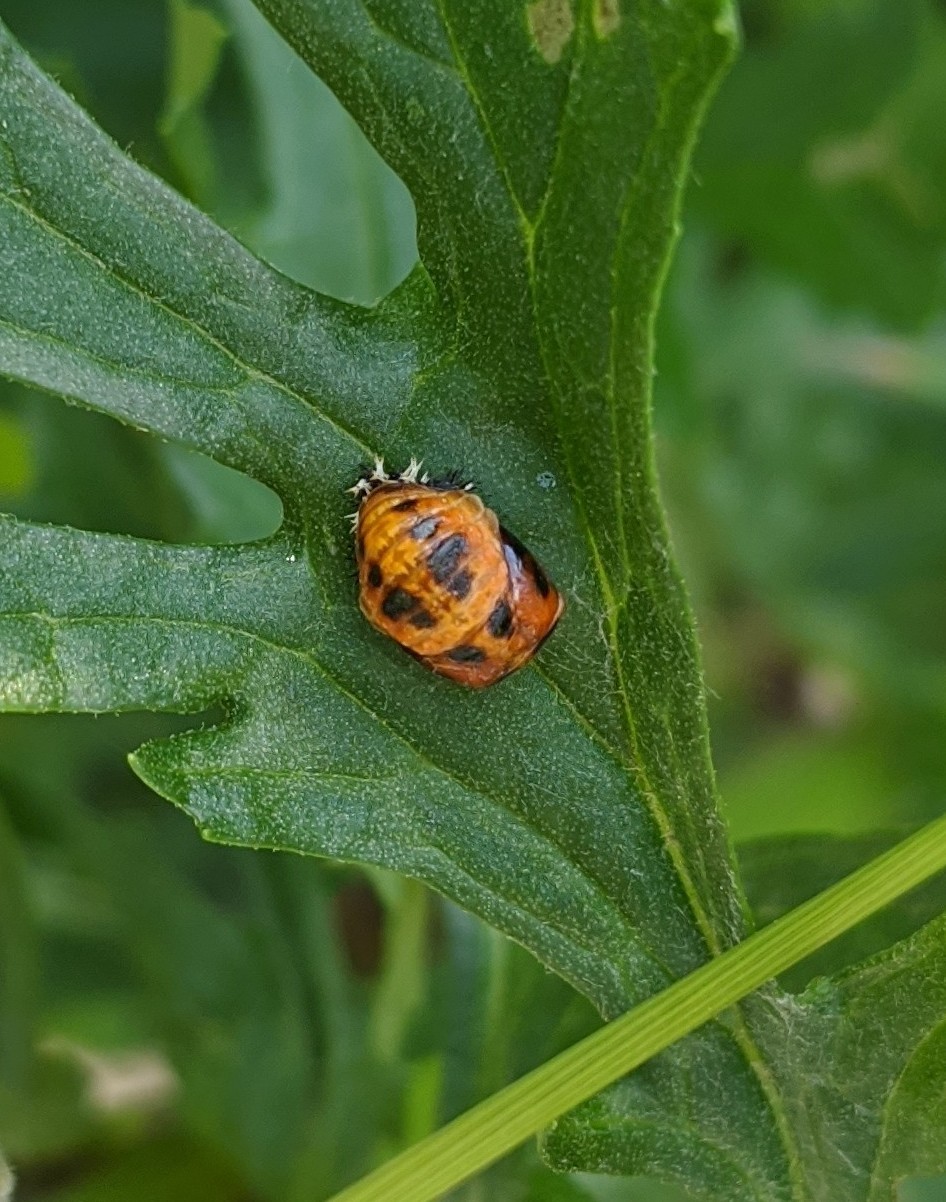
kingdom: Animalia
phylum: Arthropoda
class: Insecta
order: Coleoptera
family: Coccinellidae
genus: Harmonia
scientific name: Harmonia axyridis
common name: Harlequin ladybird
